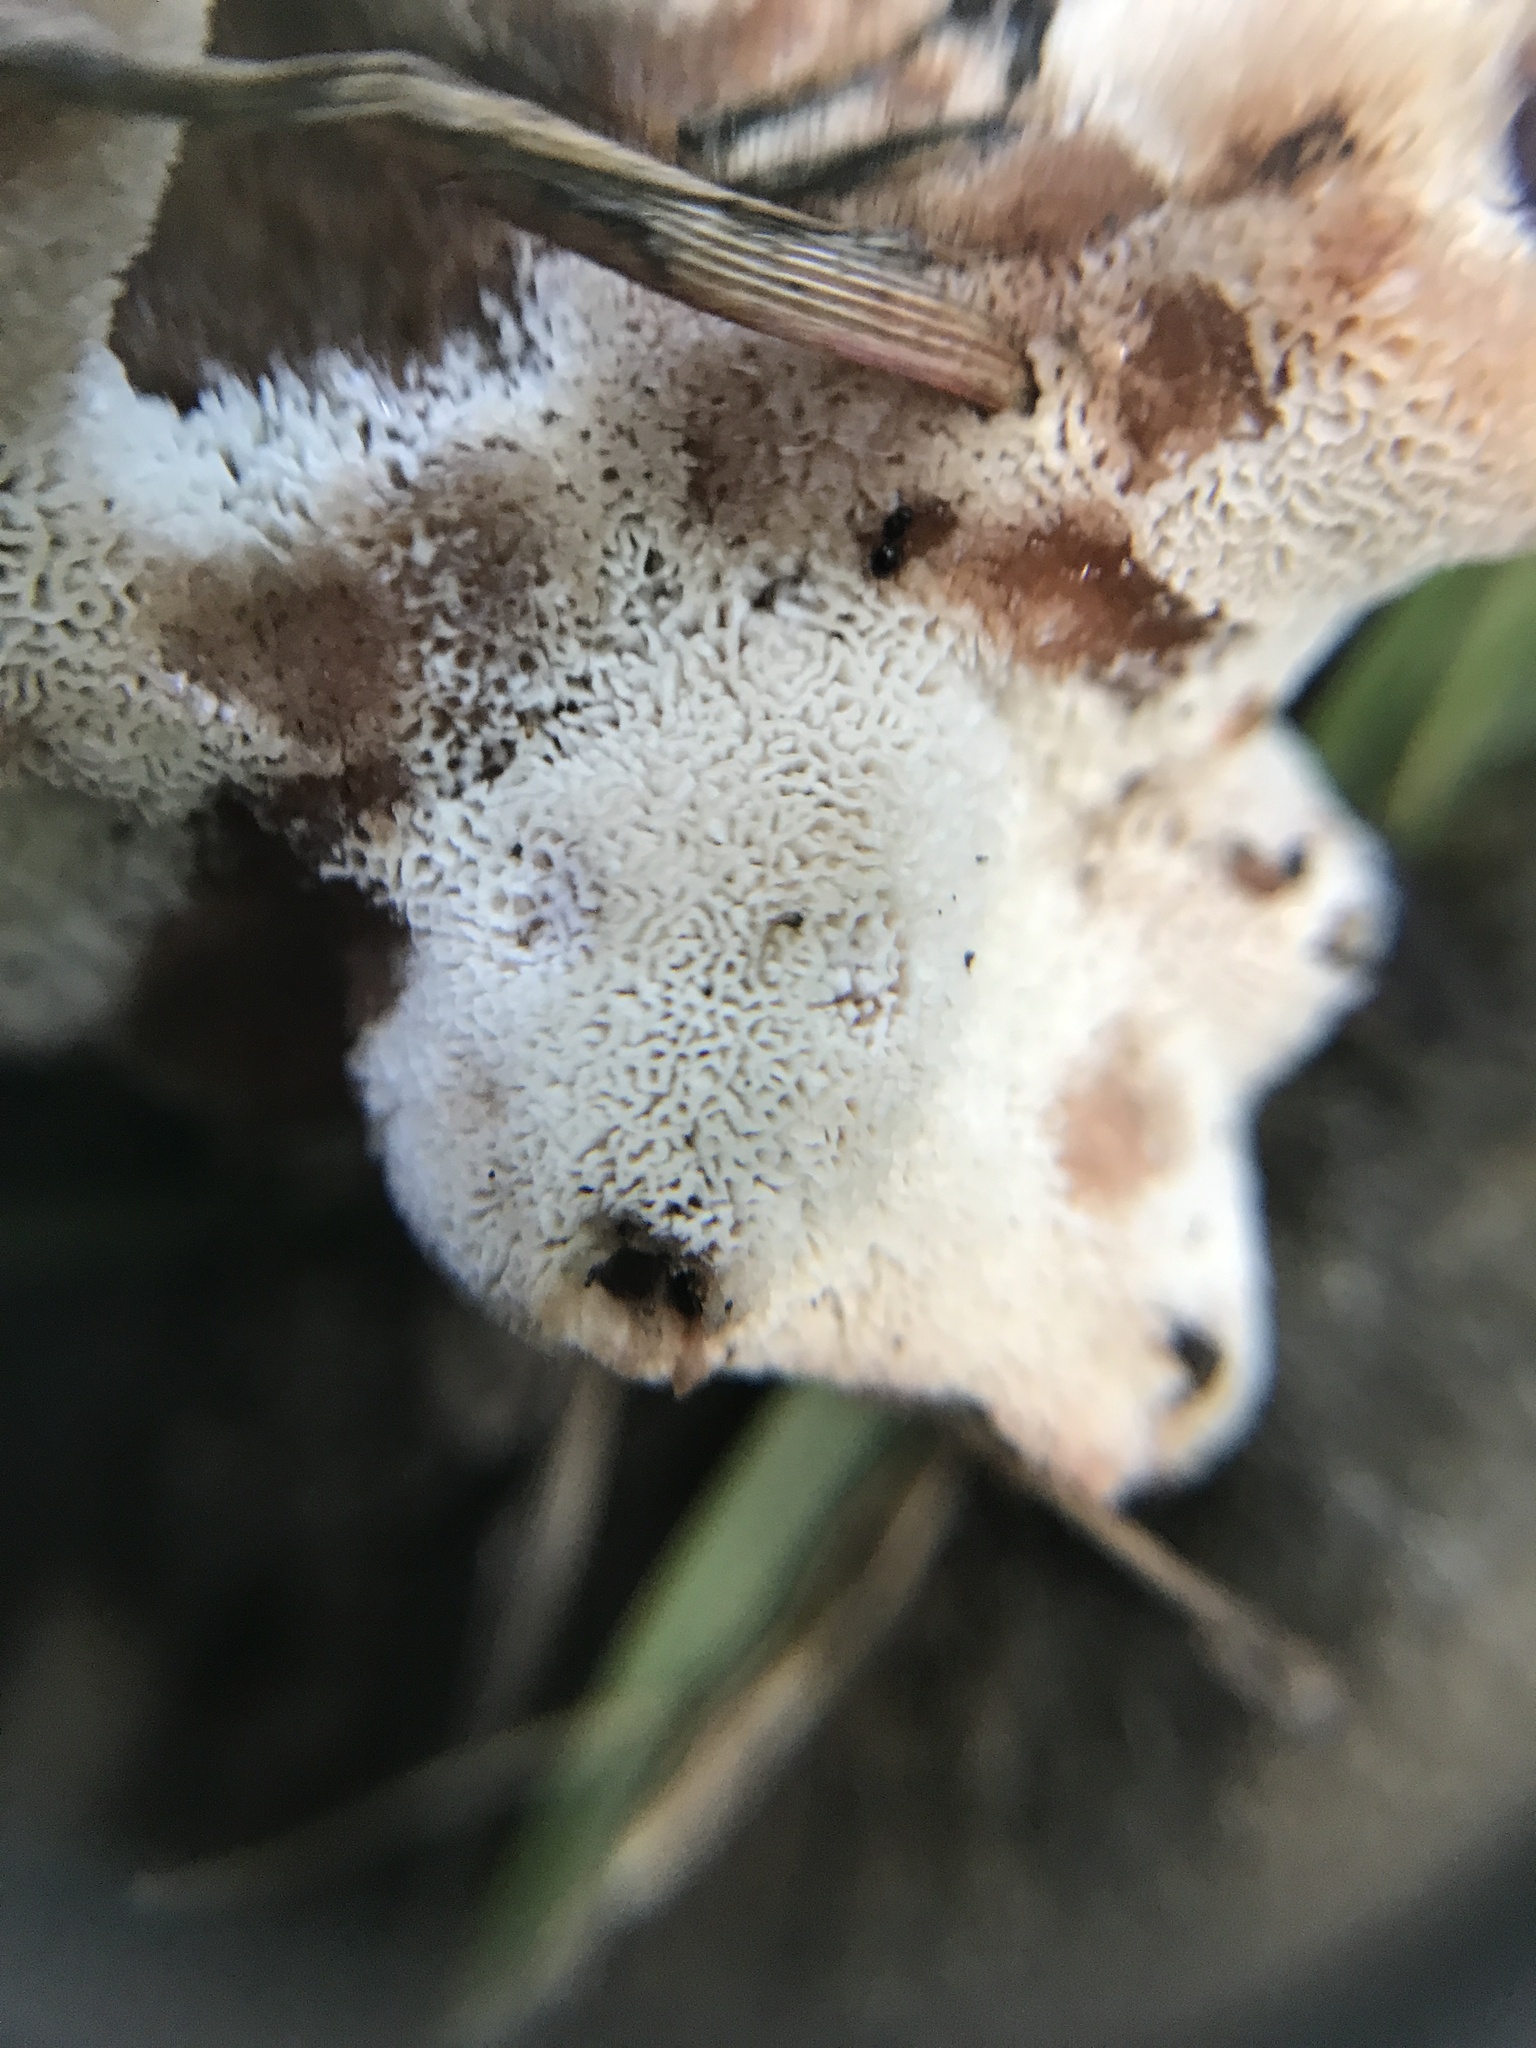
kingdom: Fungi
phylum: Basidiomycota
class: Agaricomycetes
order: Polyporales
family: Podoscyphaceae
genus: Abortiporus
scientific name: Abortiporus biennis
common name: Blushing rosette
